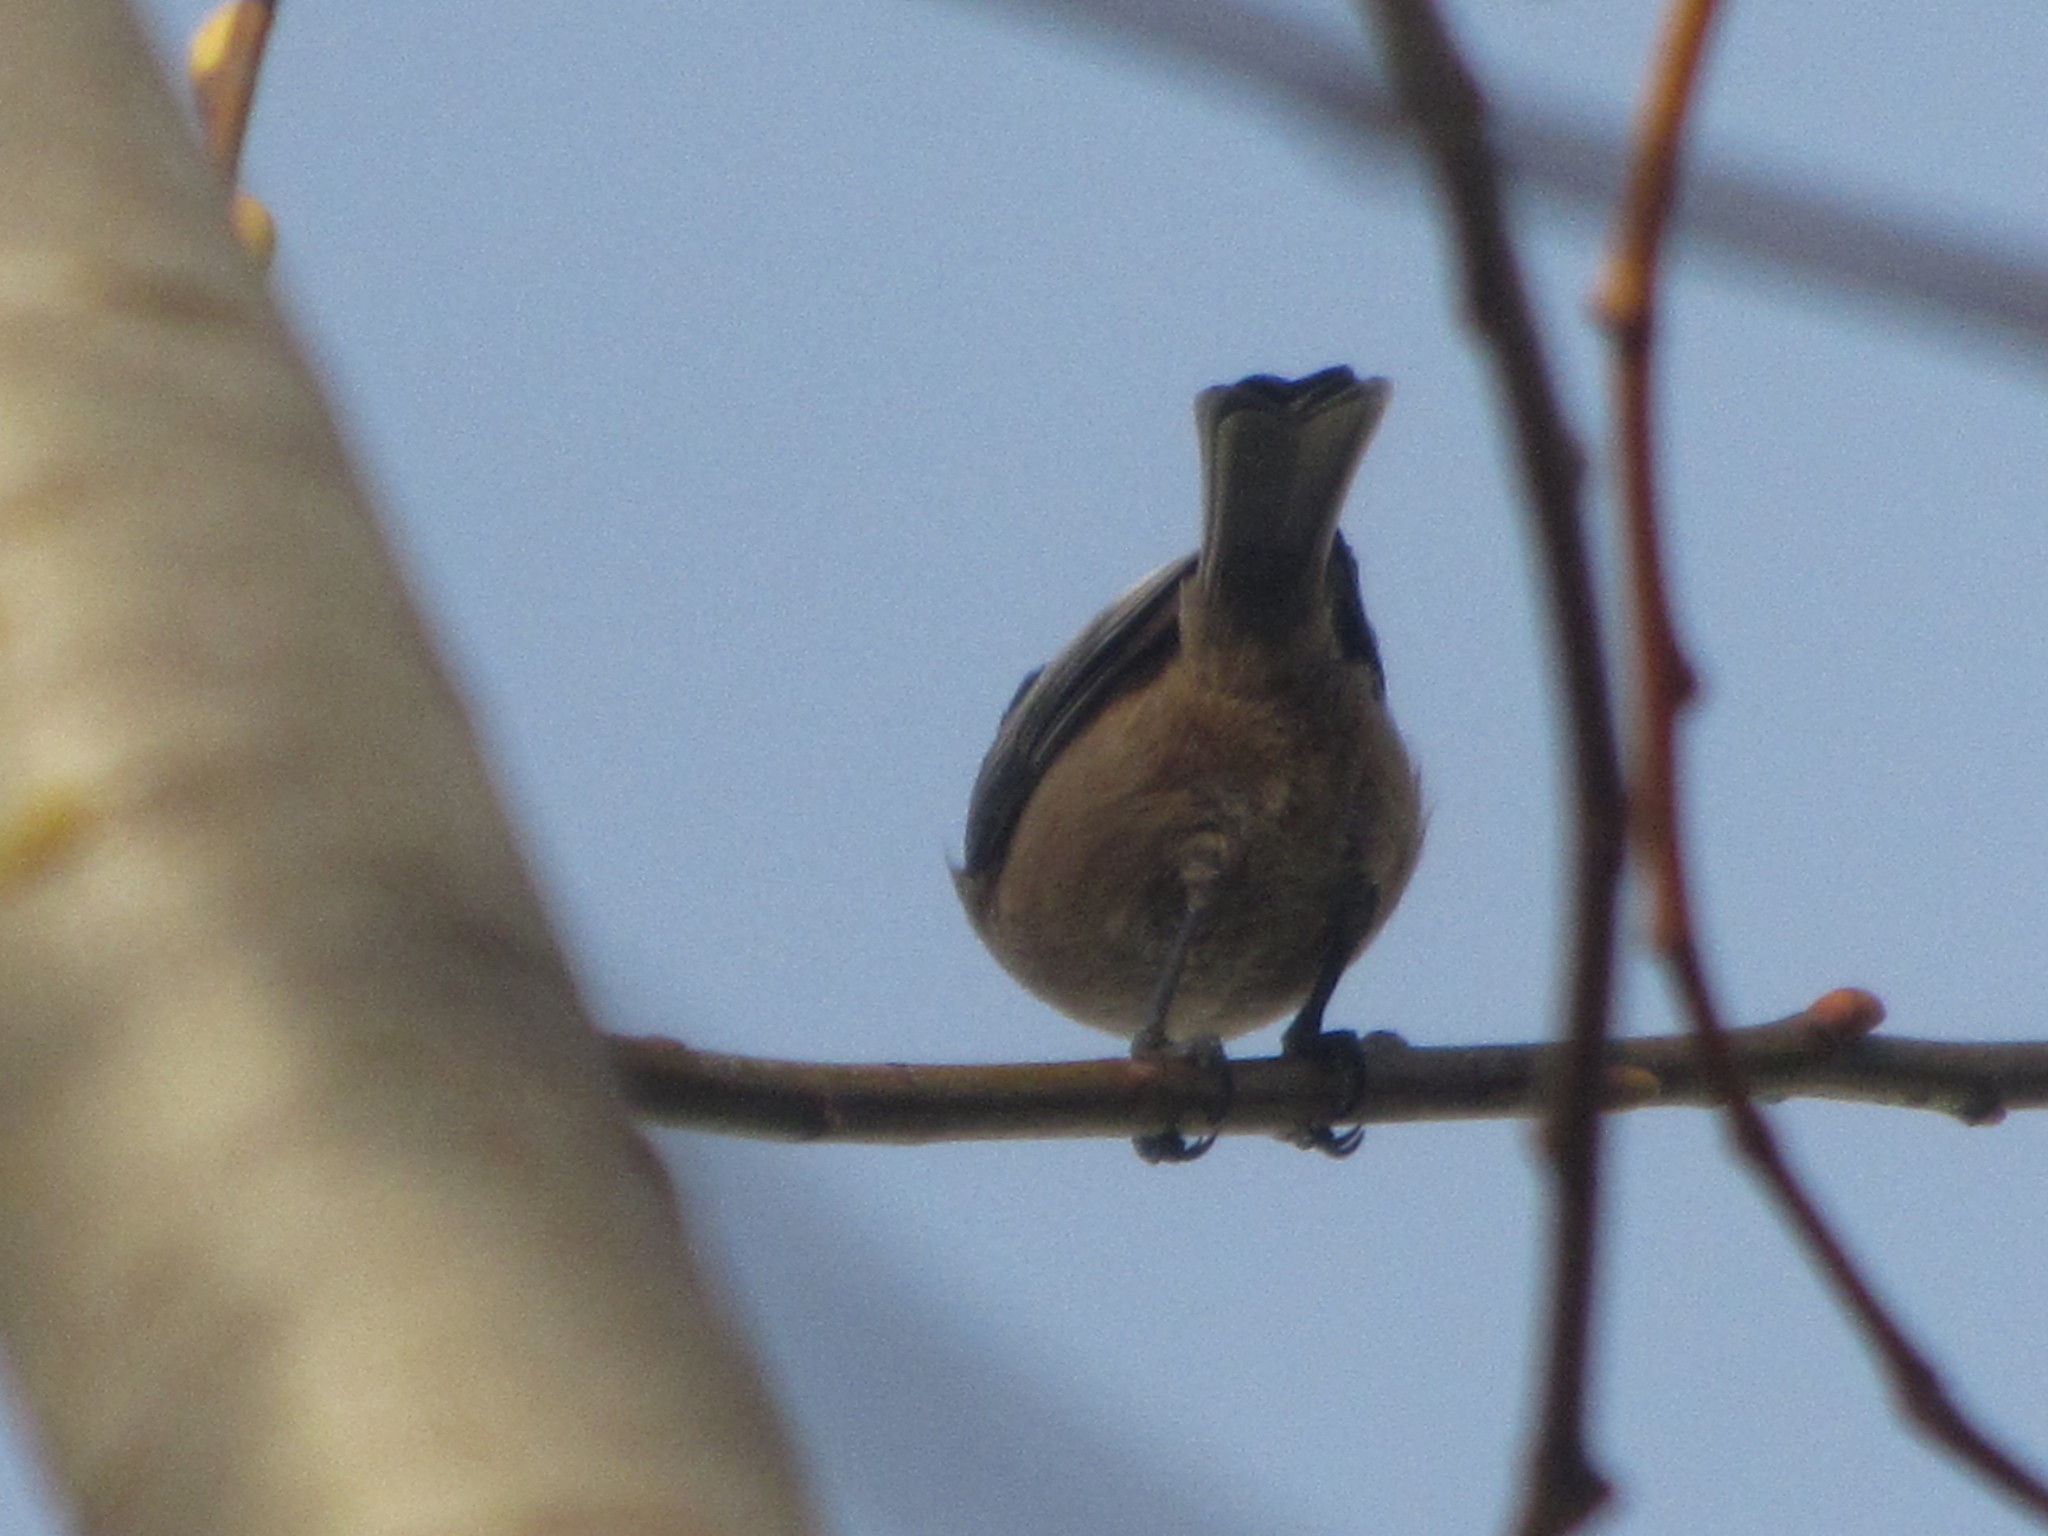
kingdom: Animalia
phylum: Chordata
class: Aves
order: Passeriformes
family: Paridae
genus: Poecile
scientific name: Poecile atricapillus
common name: Black-capped chickadee
